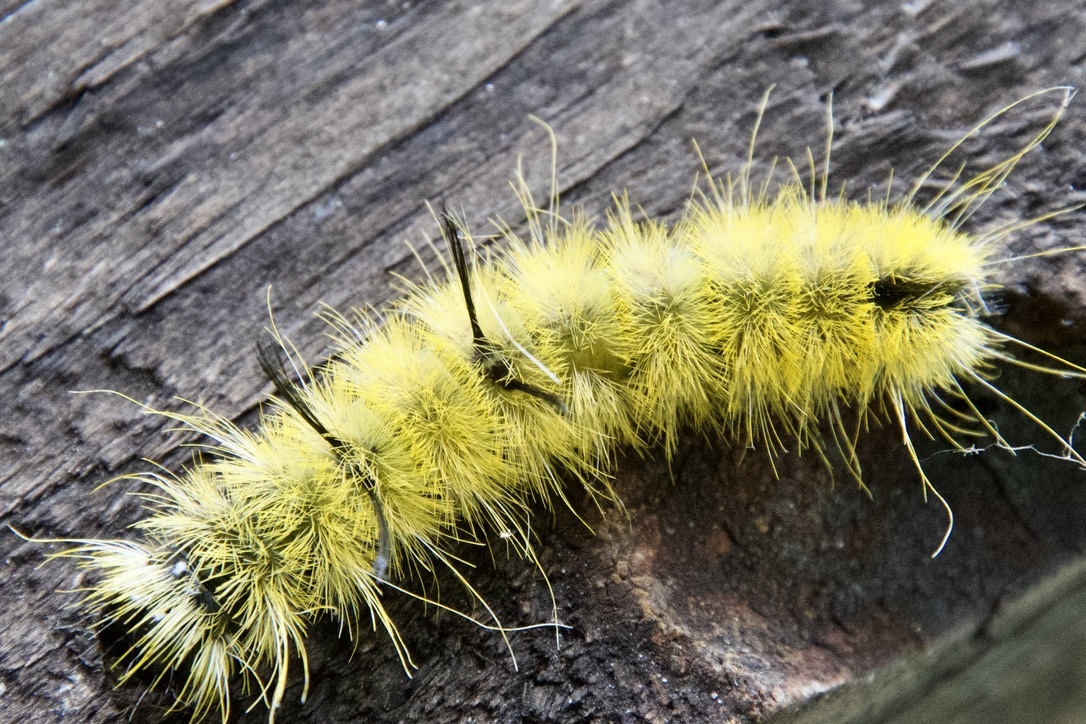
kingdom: Animalia
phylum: Arthropoda
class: Insecta
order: Lepidoptera
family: Noctuidae
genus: Acronicta
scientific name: Acronicta americana
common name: American dagger
